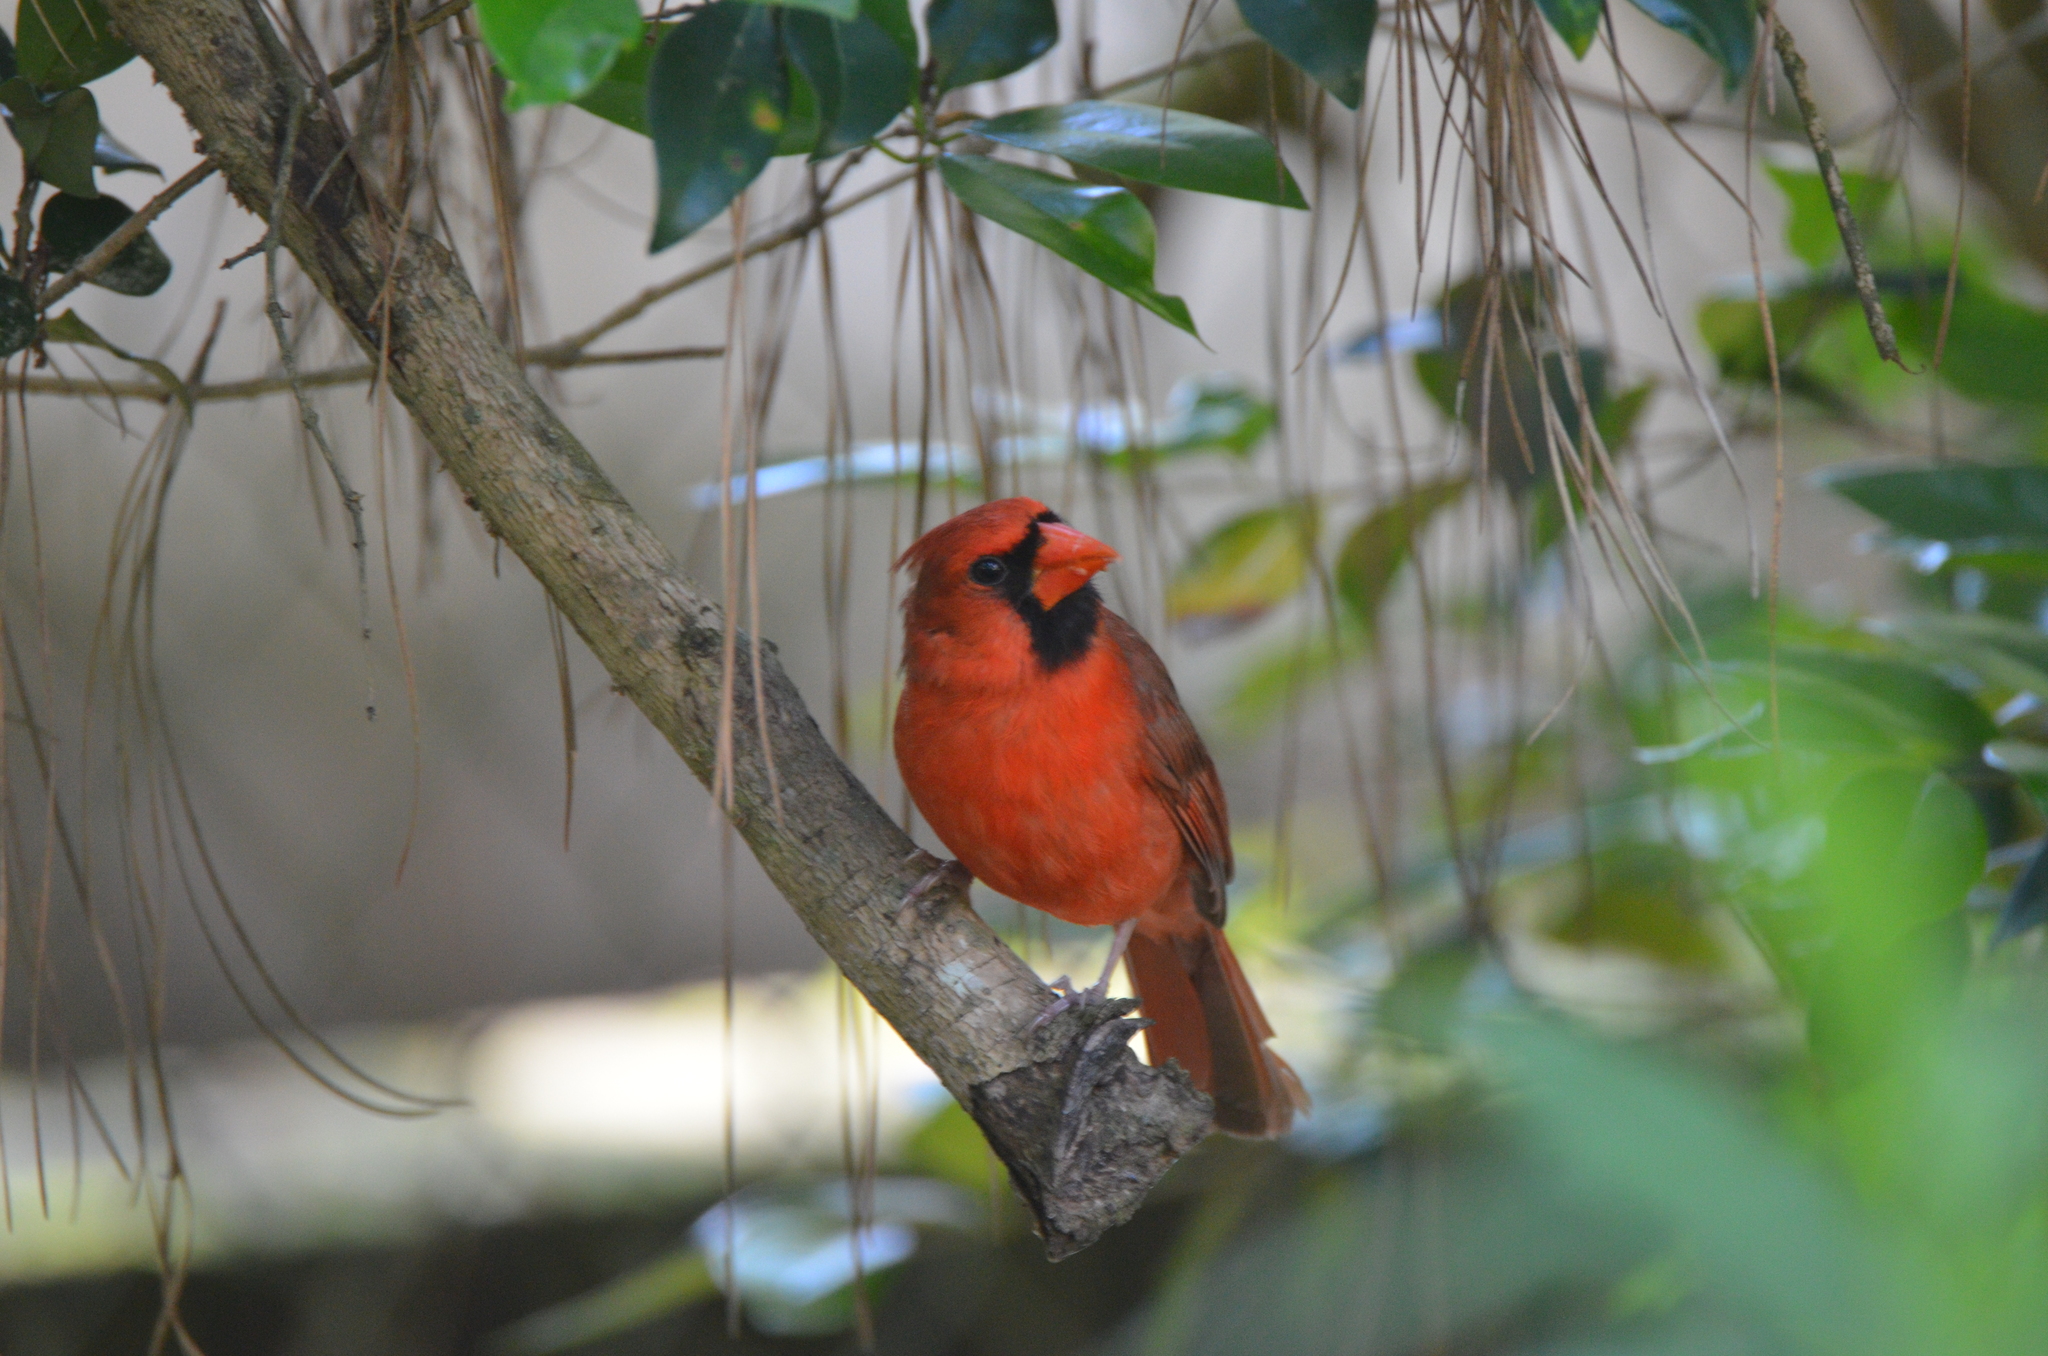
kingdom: Animalia
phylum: Chordata
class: Aves
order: Passeriformes
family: Cardinalidae
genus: Cardinalis
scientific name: Cardinalis cardinalis
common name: Northern cardinal
